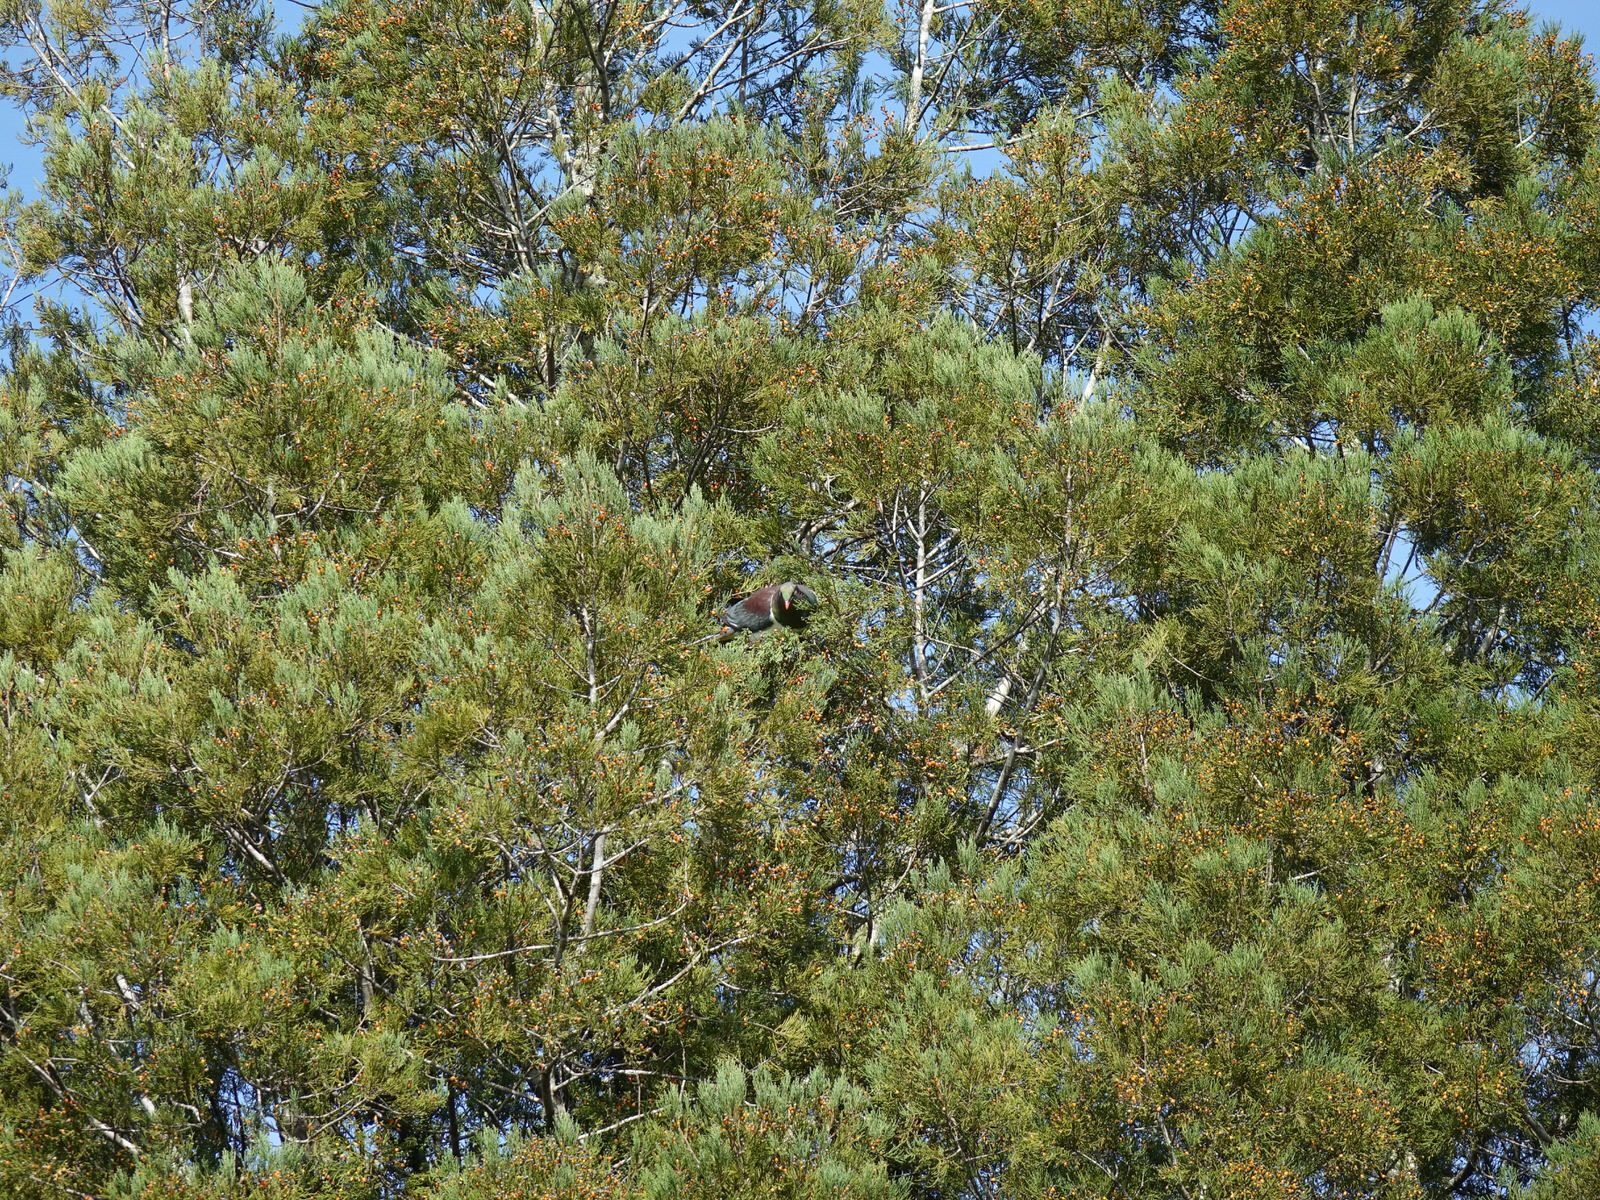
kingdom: Animalia
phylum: Chordata
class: Aves
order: Columbiformes
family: Columbidae
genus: Hemiphaga
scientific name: Hemiphaga novaeseelandiae
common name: New zealand pigeon
